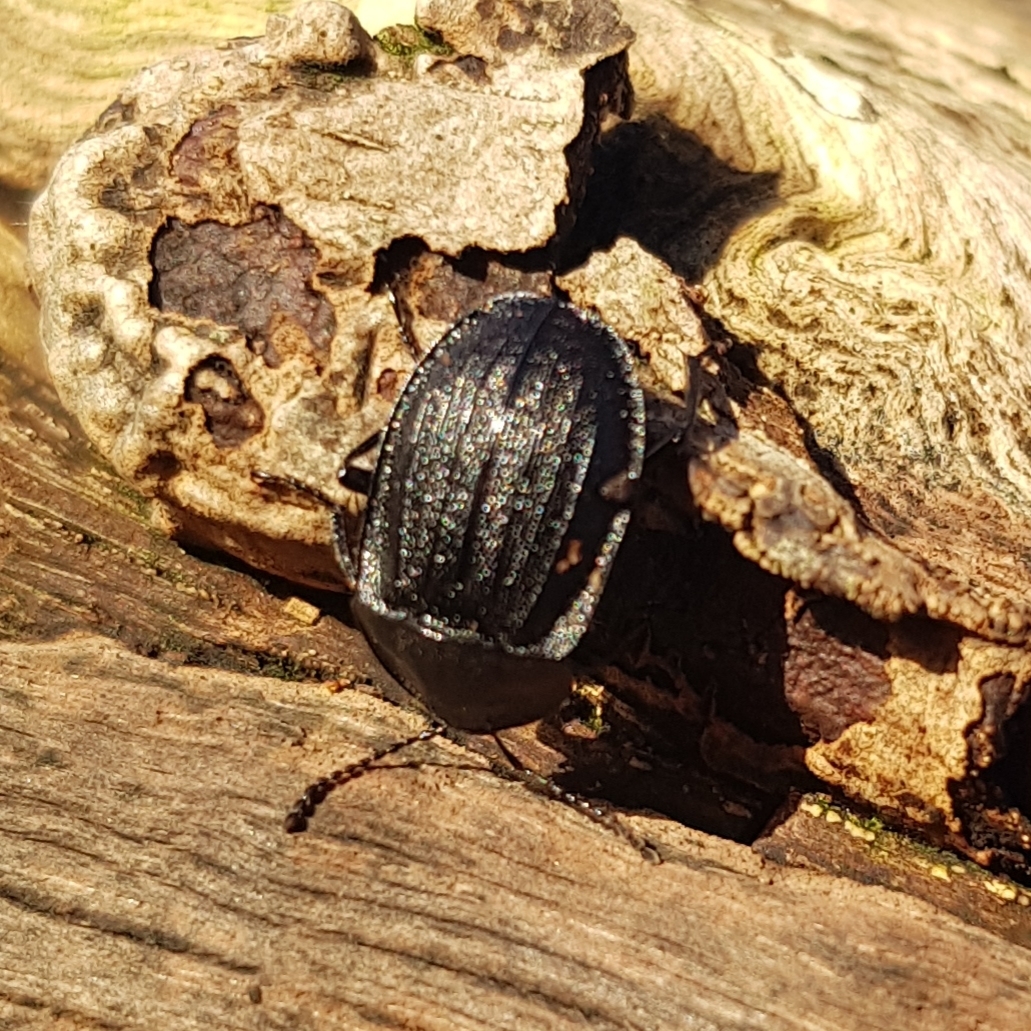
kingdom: Animalia
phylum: Arthropoda
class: Insecta
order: Coleoptera
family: Staphylinidae
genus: Silpha
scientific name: Silpha atrata
